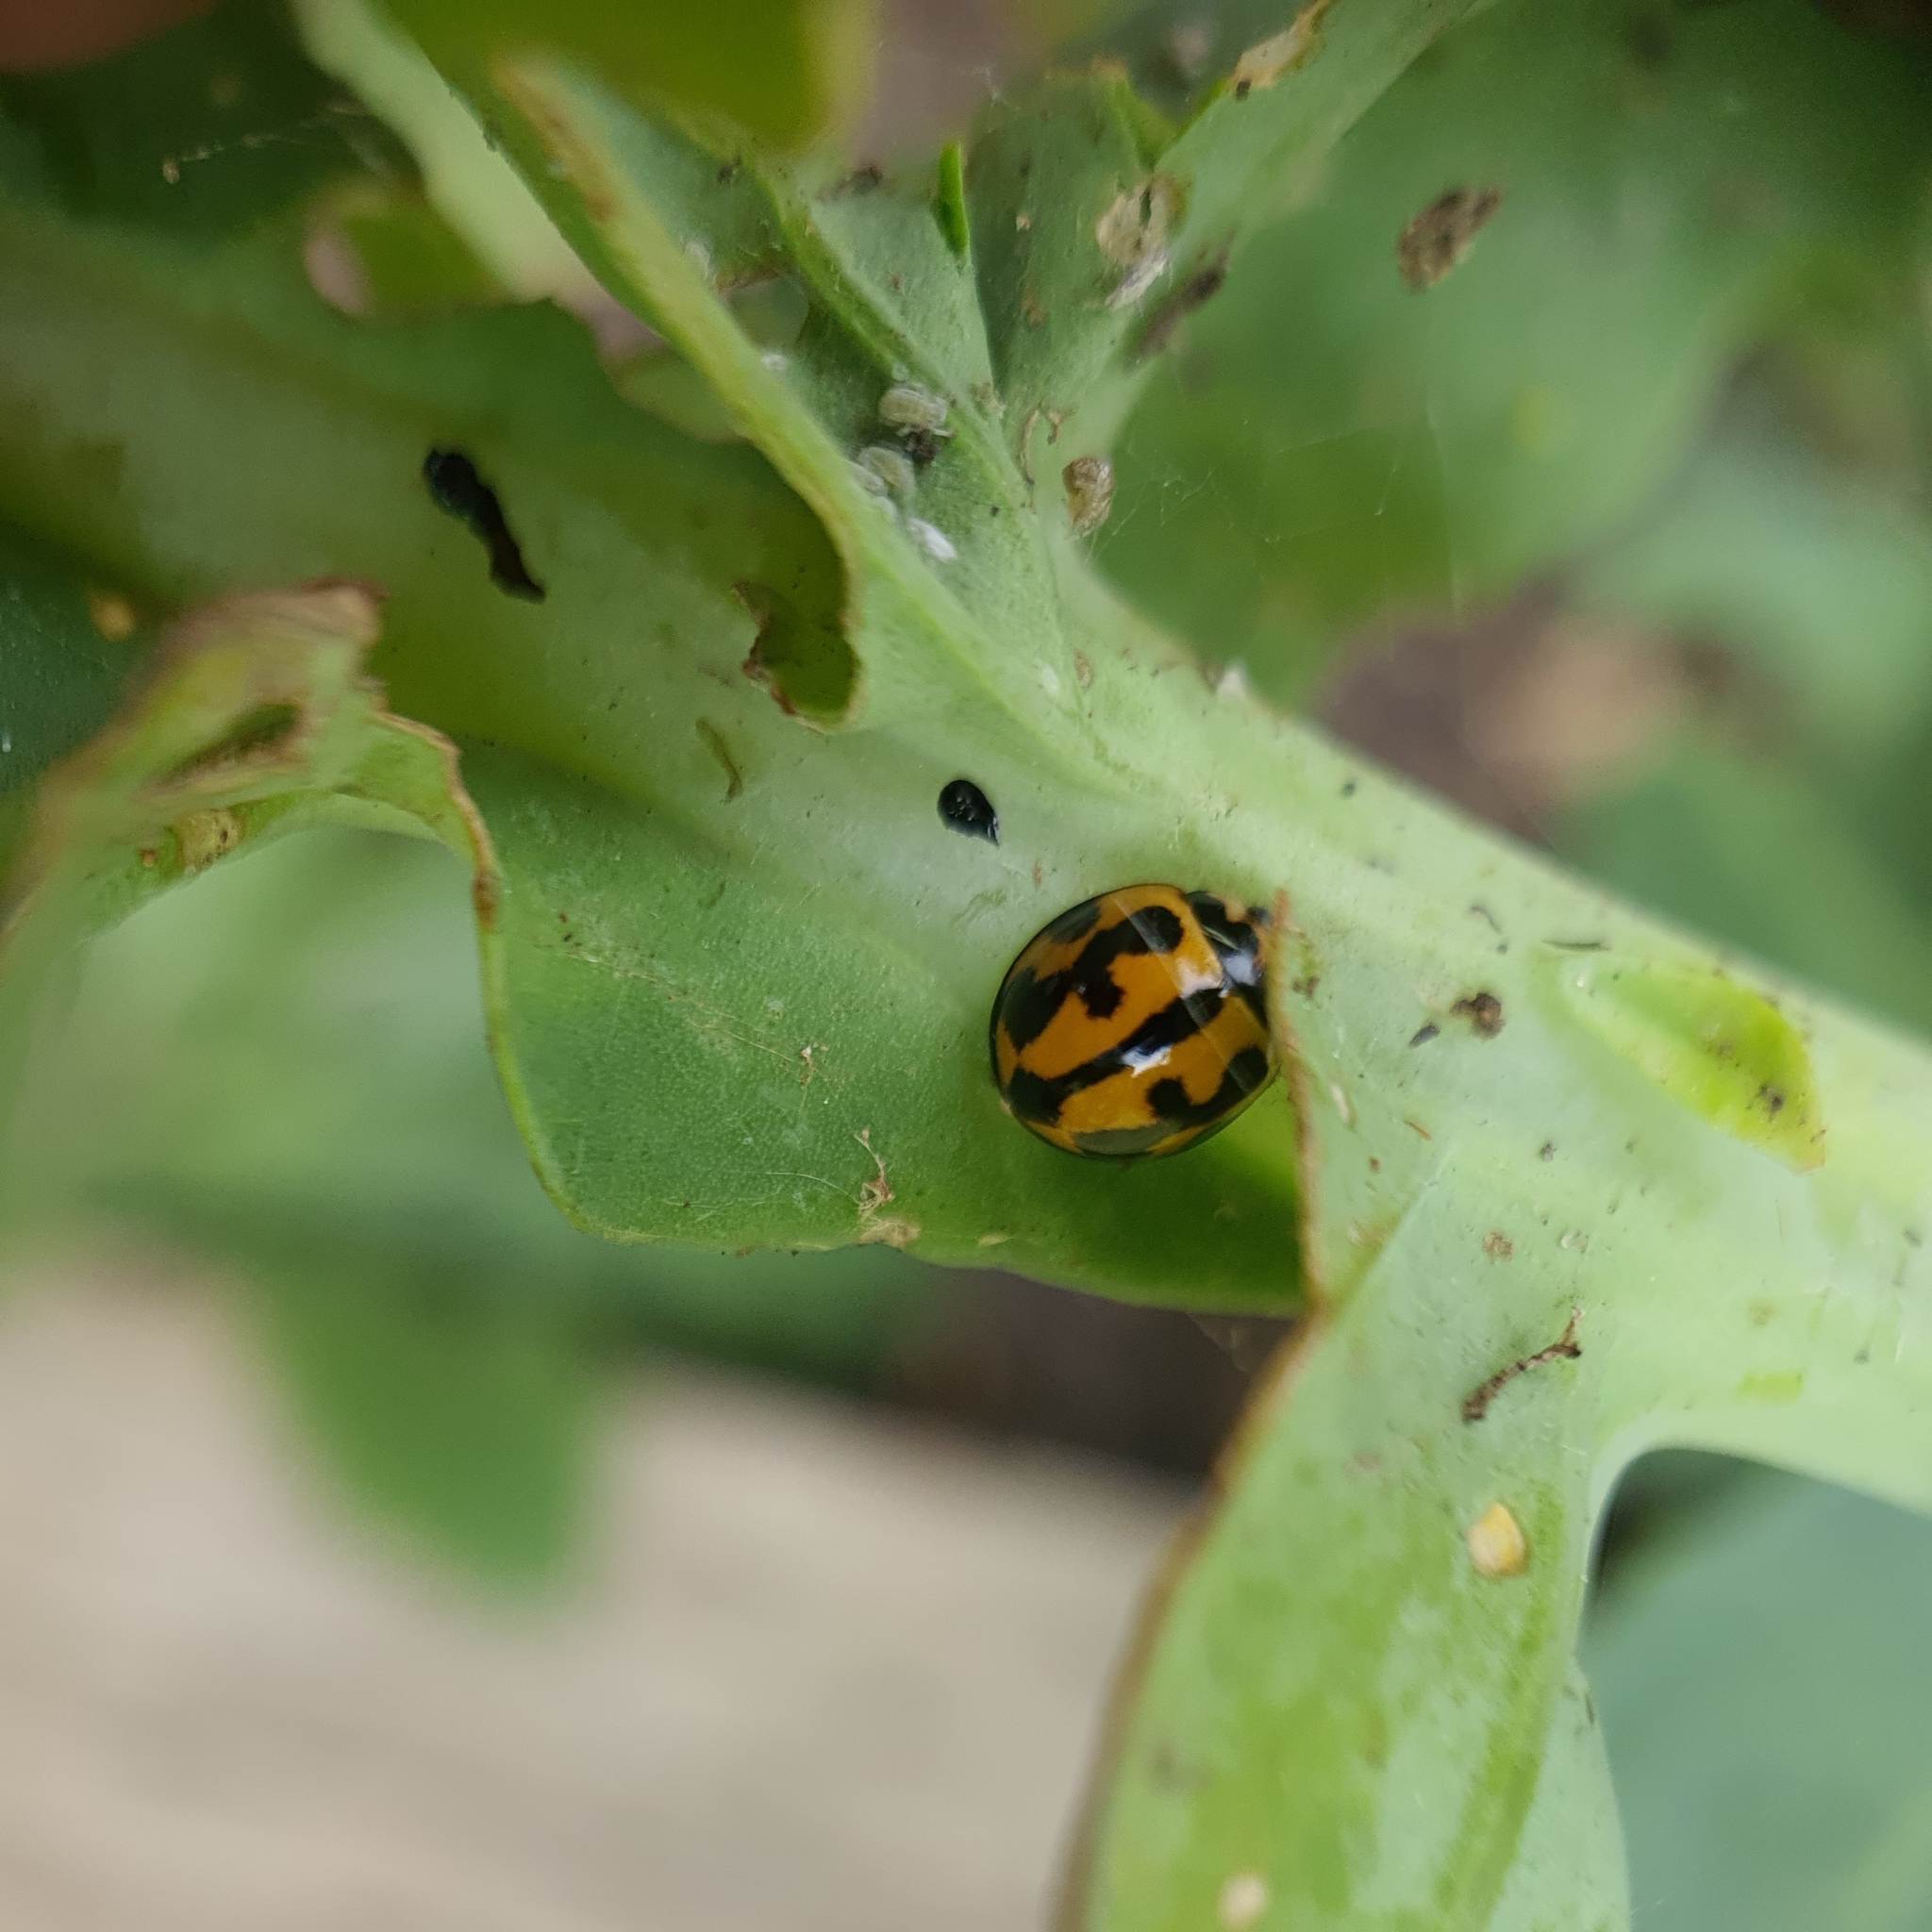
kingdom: Animalia
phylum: Arthropoda
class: Insecta
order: Coleoptera
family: Coccinellidae
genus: Coelophora
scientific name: Coelophora inaequalis
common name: Common australian lady beetle
